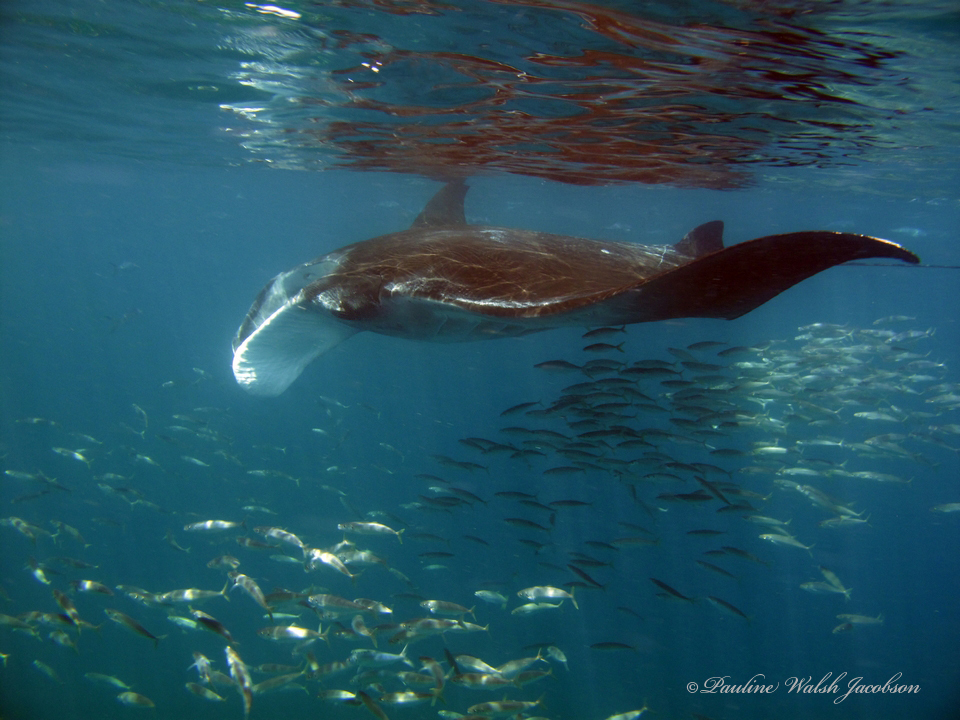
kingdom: Animalia
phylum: Chordata
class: Elasmobranchii
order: Myliobatiformes
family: Myliobatidae
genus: Mobula
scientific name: Mobula birostris
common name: Manta ray
